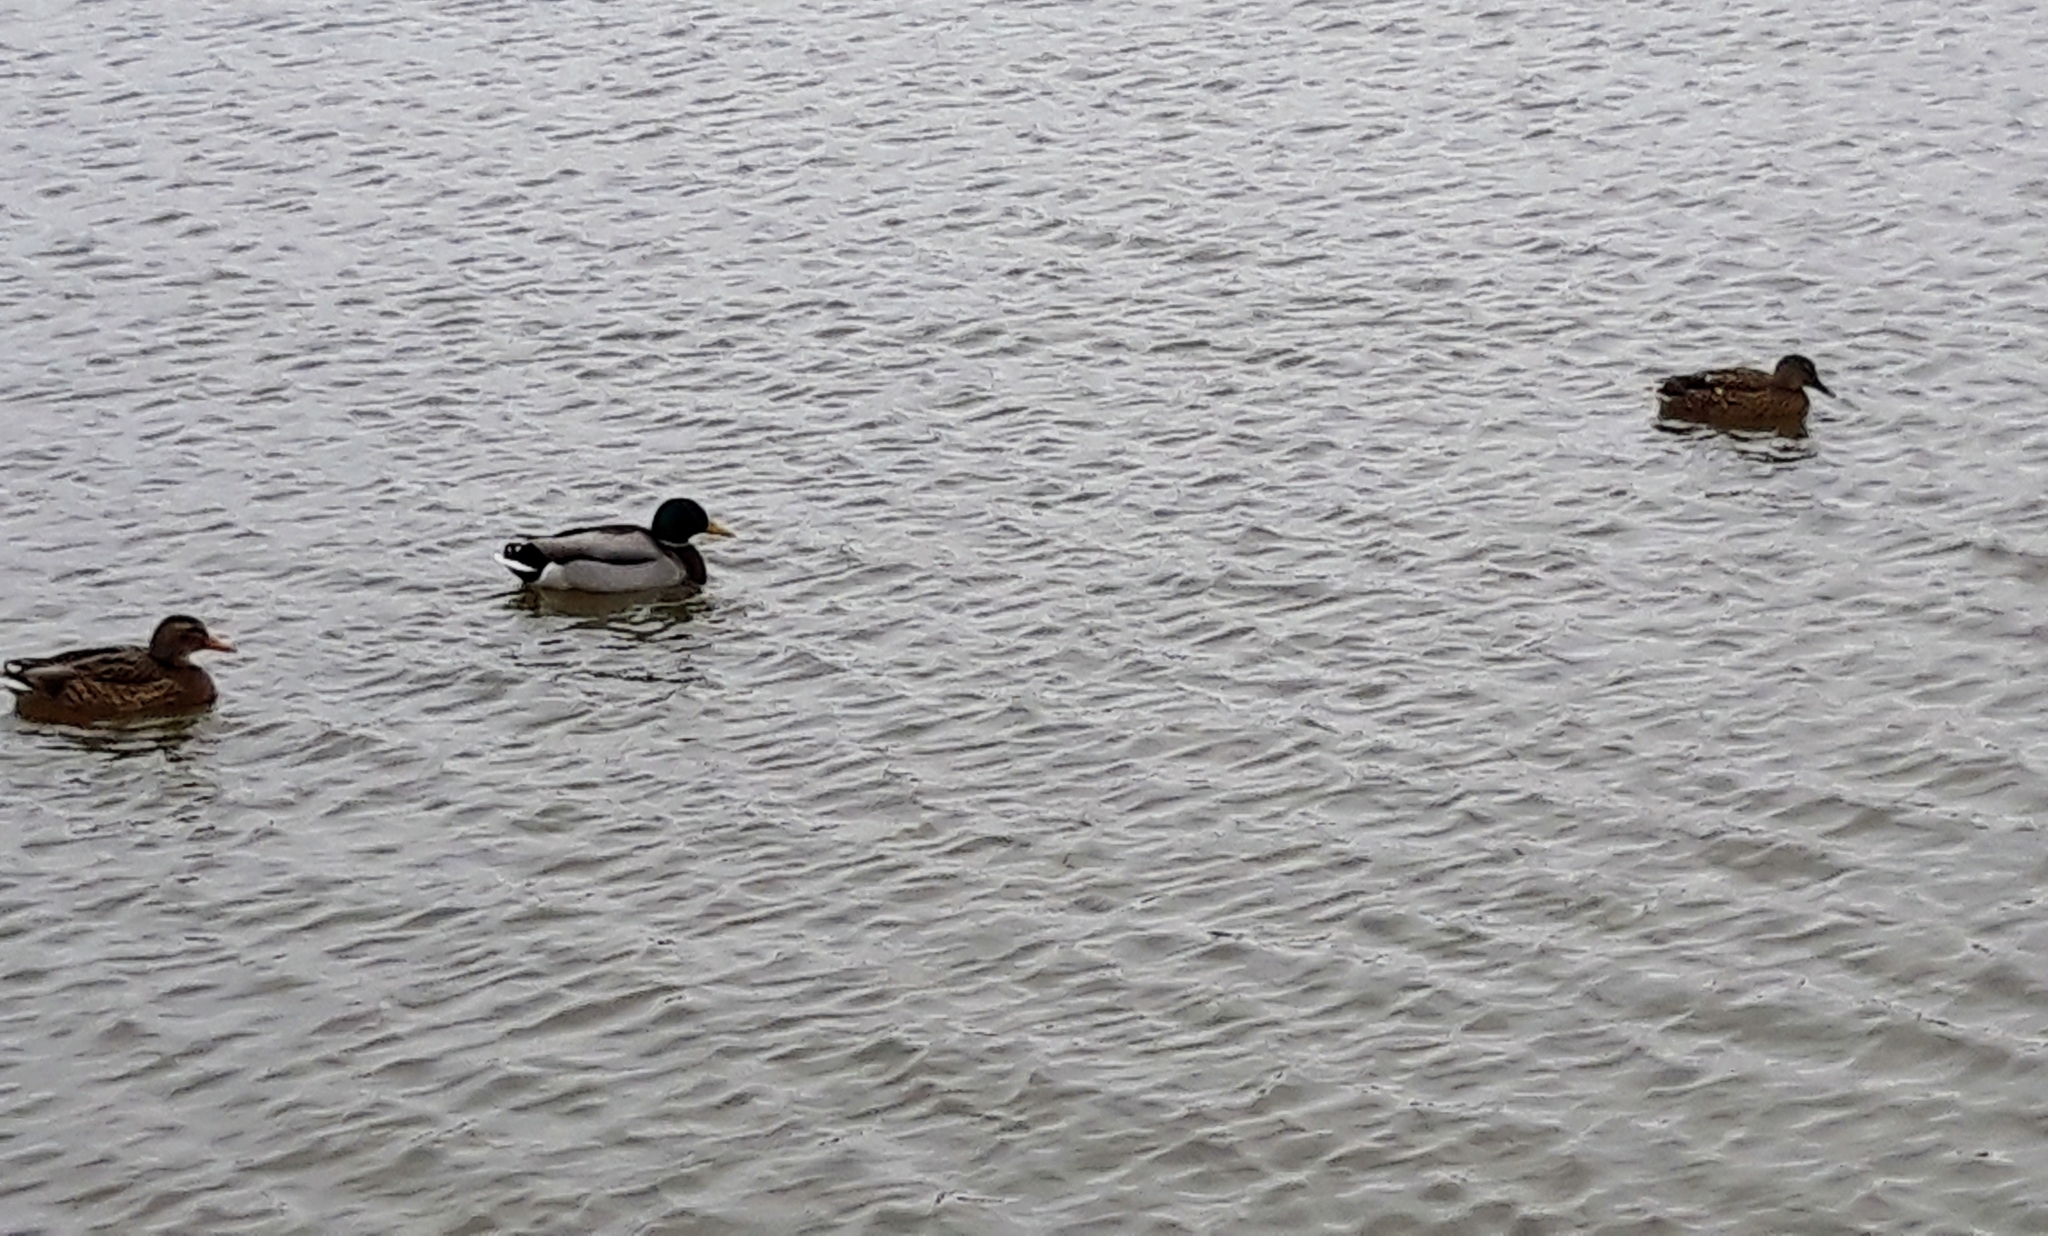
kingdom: Animalia
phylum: Chordata
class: Aves
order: Anseriformes
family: Anatidae
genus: Anas
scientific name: Anas platyrhynchos
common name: Mallard
